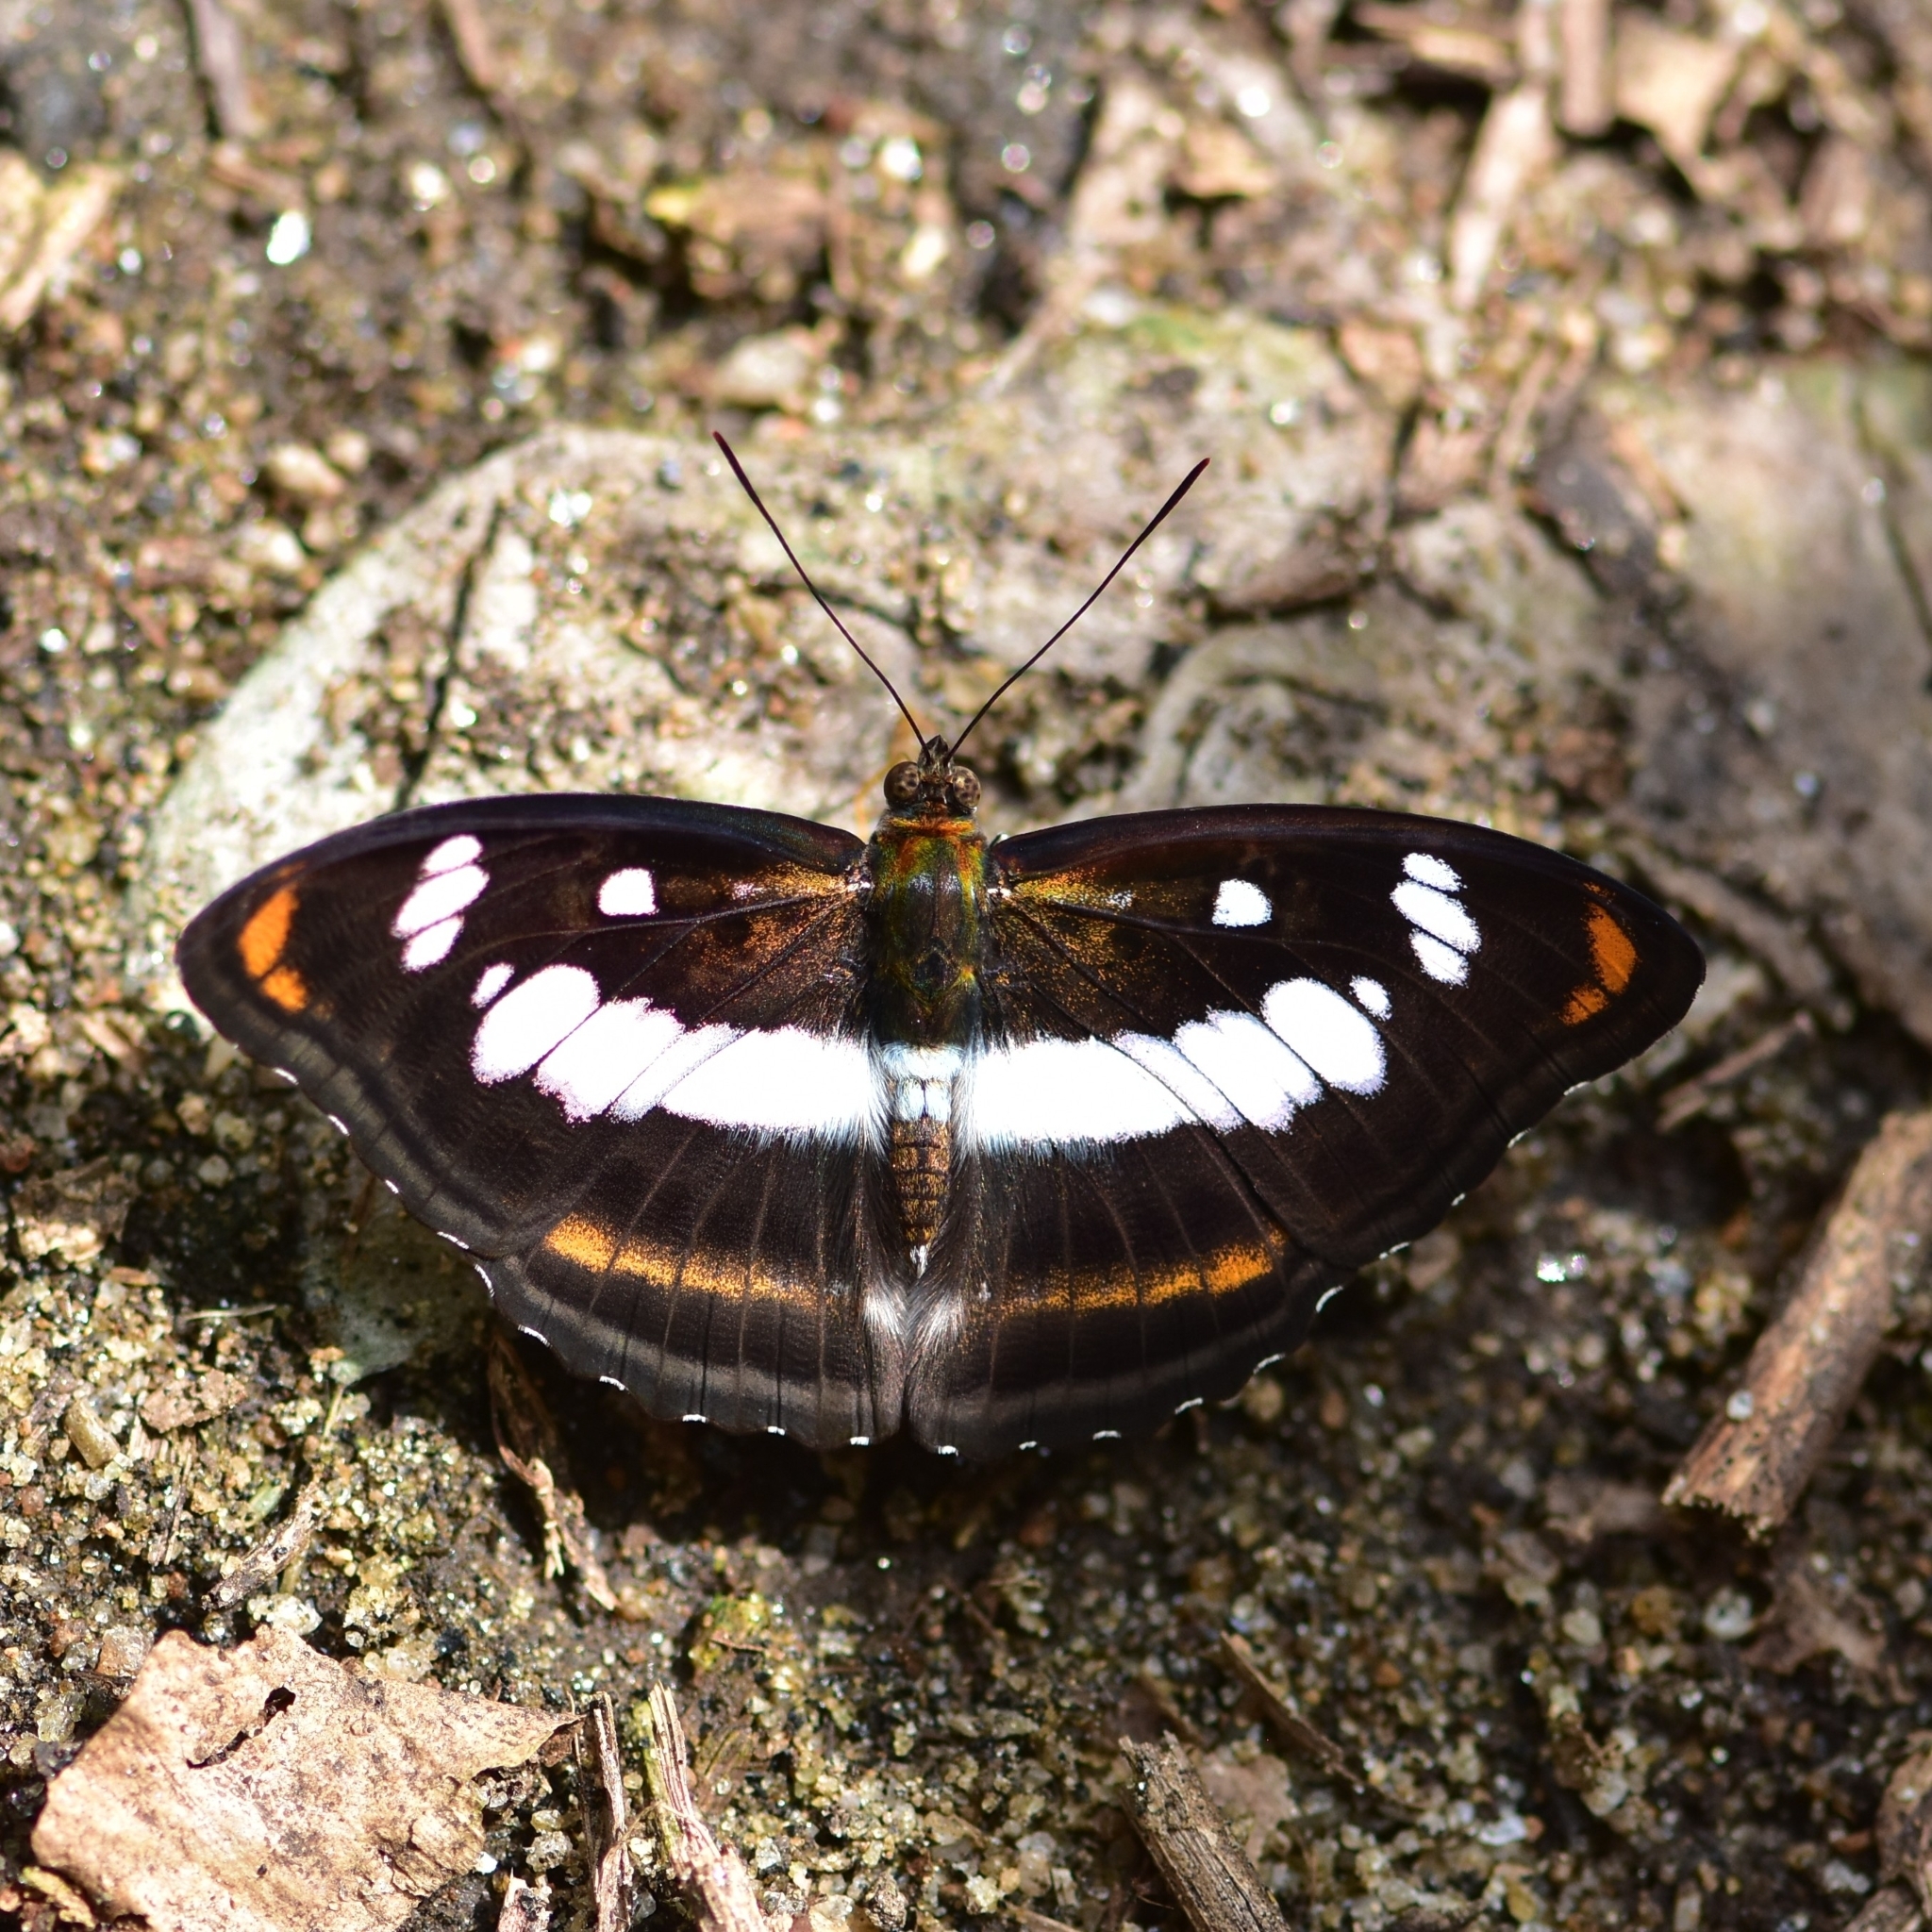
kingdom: Animalia
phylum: Arthropoda
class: Insecta
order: Lepidoptera
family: Nymphalidae
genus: Parathyma
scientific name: Parathyma nefte
